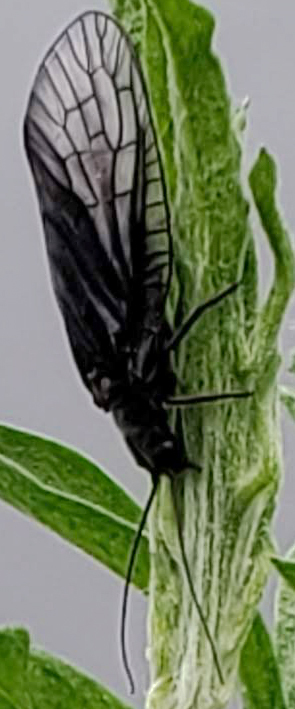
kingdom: Animalia
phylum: Arthropoda
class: Insecta
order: Megaloptera
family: Sialidae
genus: Sialis
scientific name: Sialis
